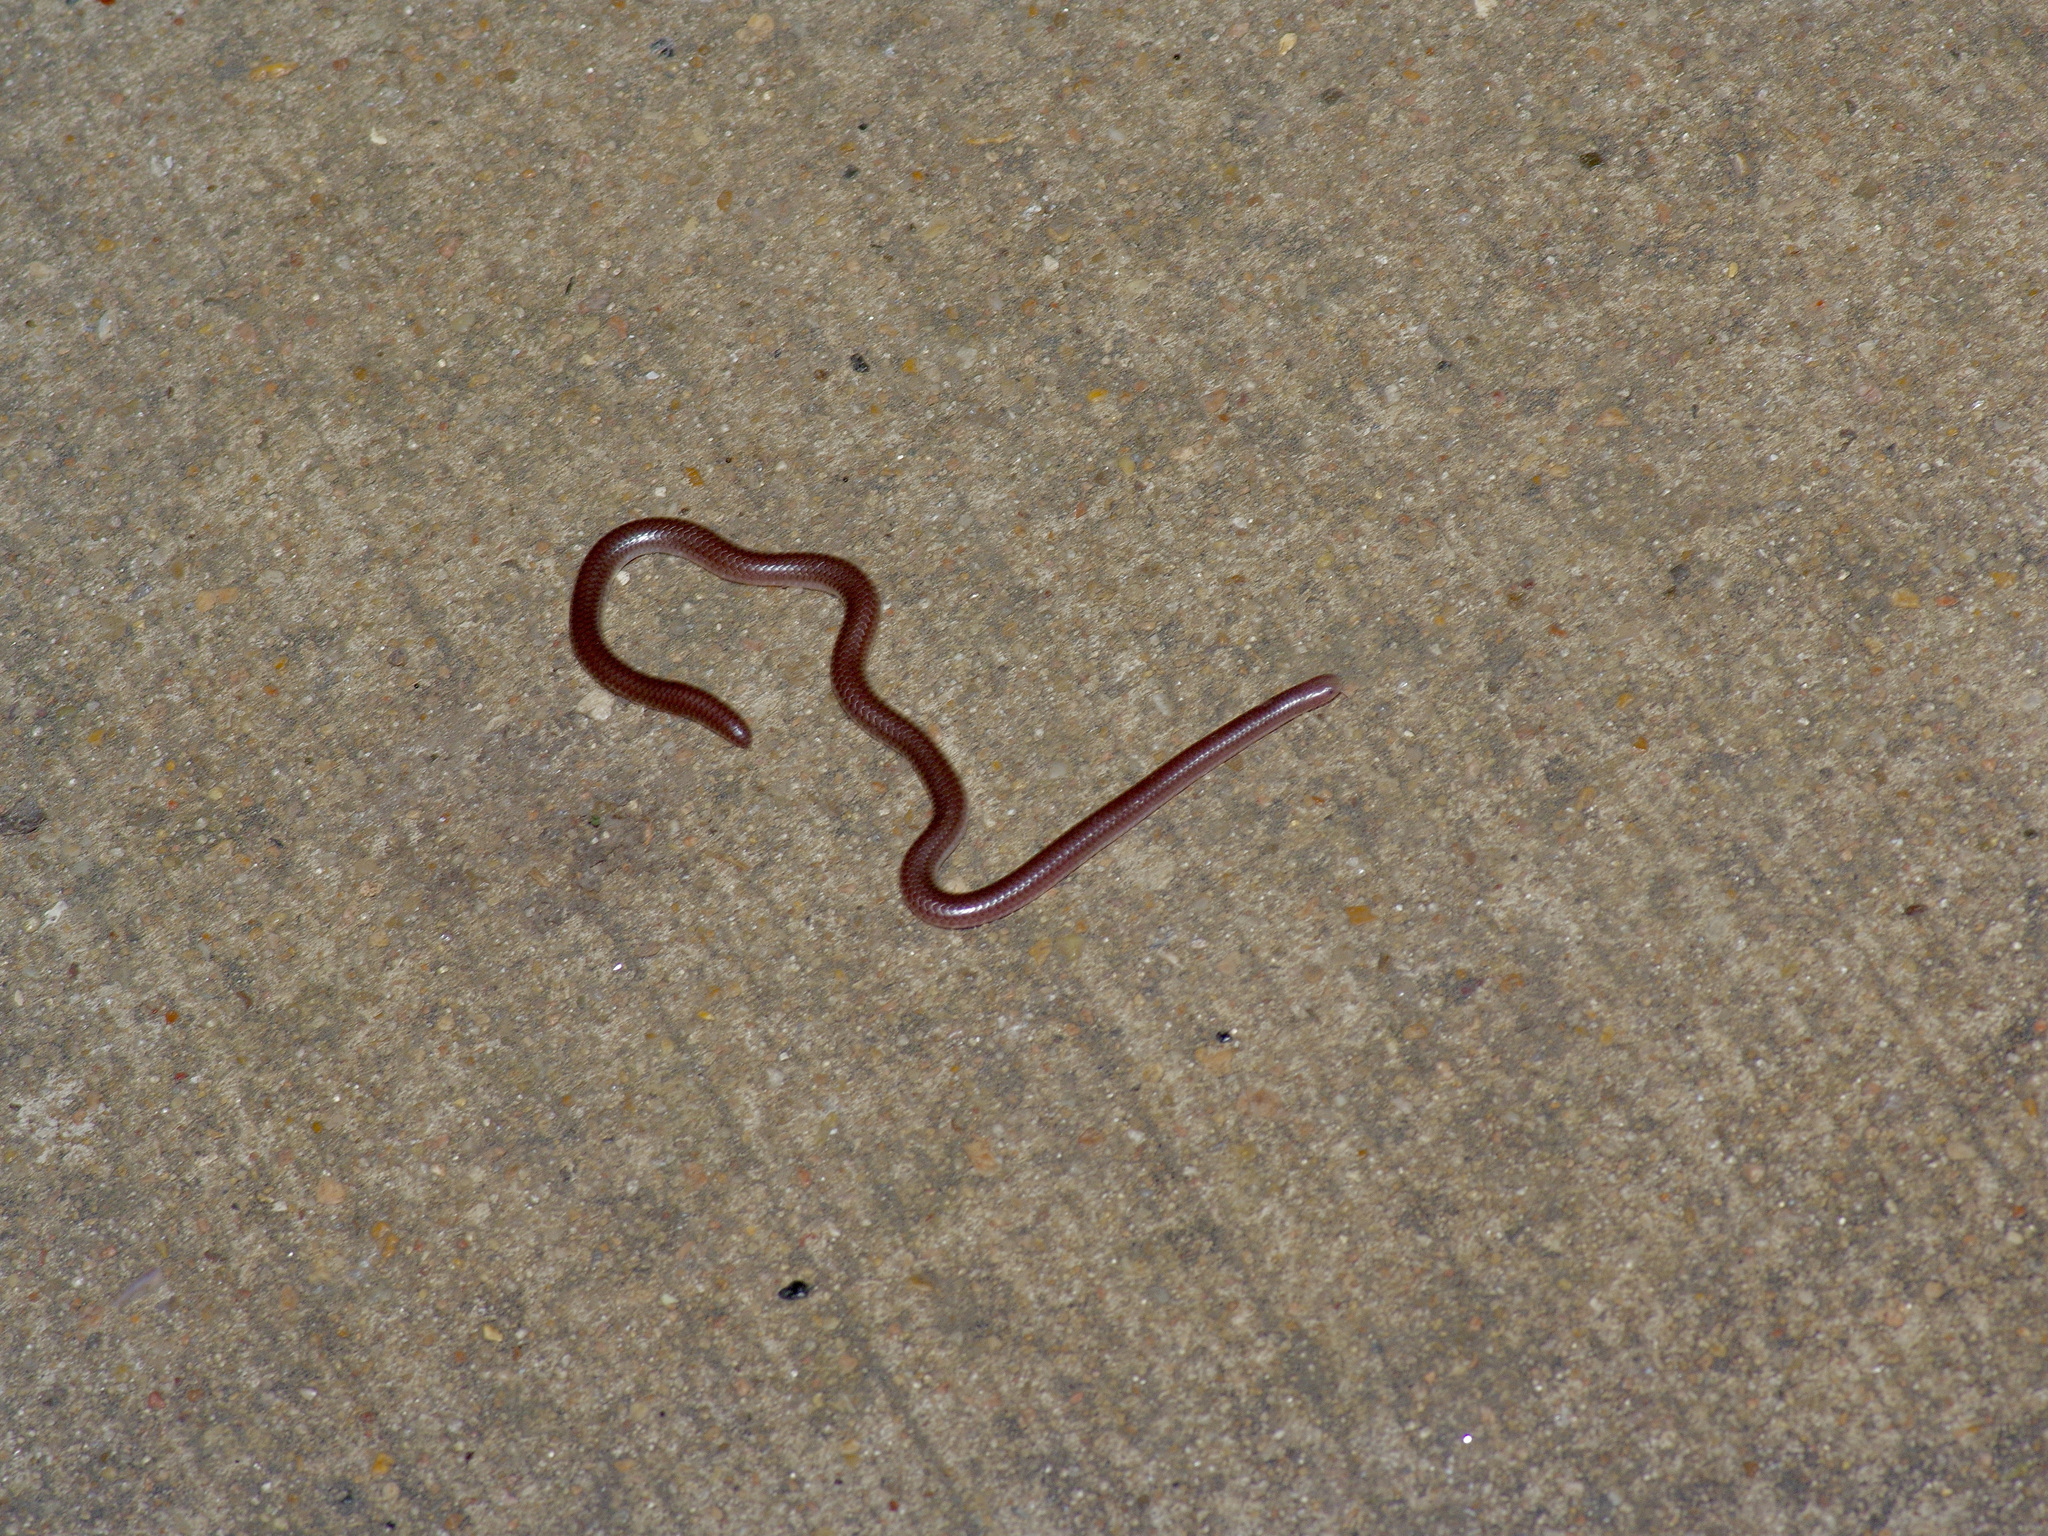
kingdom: Animalia
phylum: Chordata
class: Squamata
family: Leptotyphlopidae
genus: Rena
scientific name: Rena dulcis
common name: Texas blind snake
